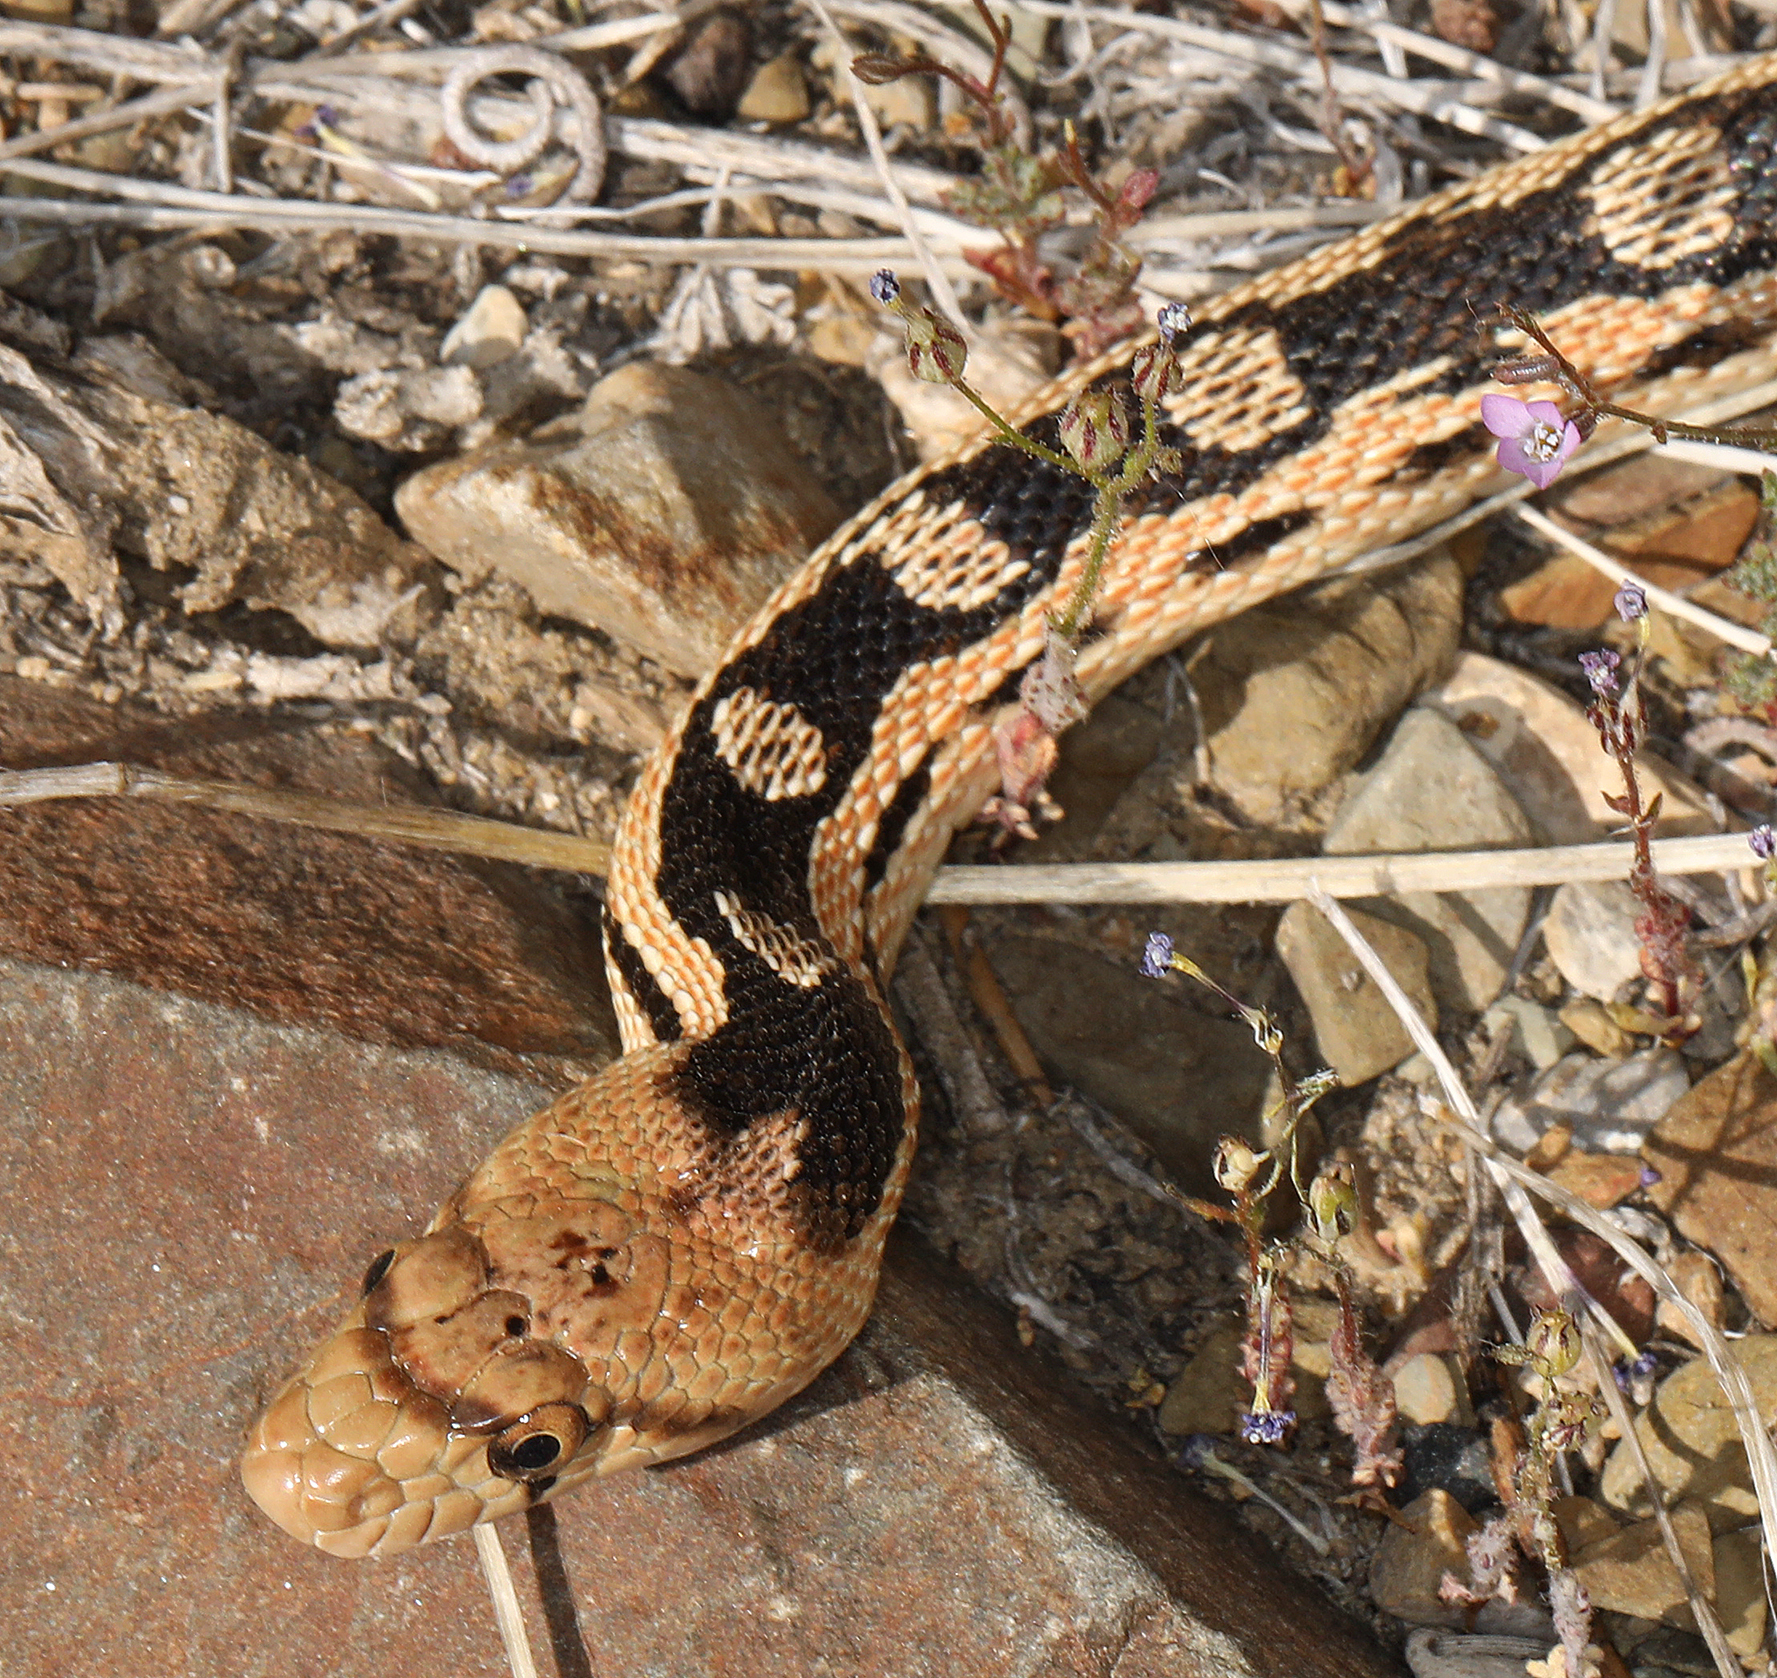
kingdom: Animalia
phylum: Chordata
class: Squamata
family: Colubridae
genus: Pituophis
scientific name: Pituophis catenifer
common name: Gopher snake
